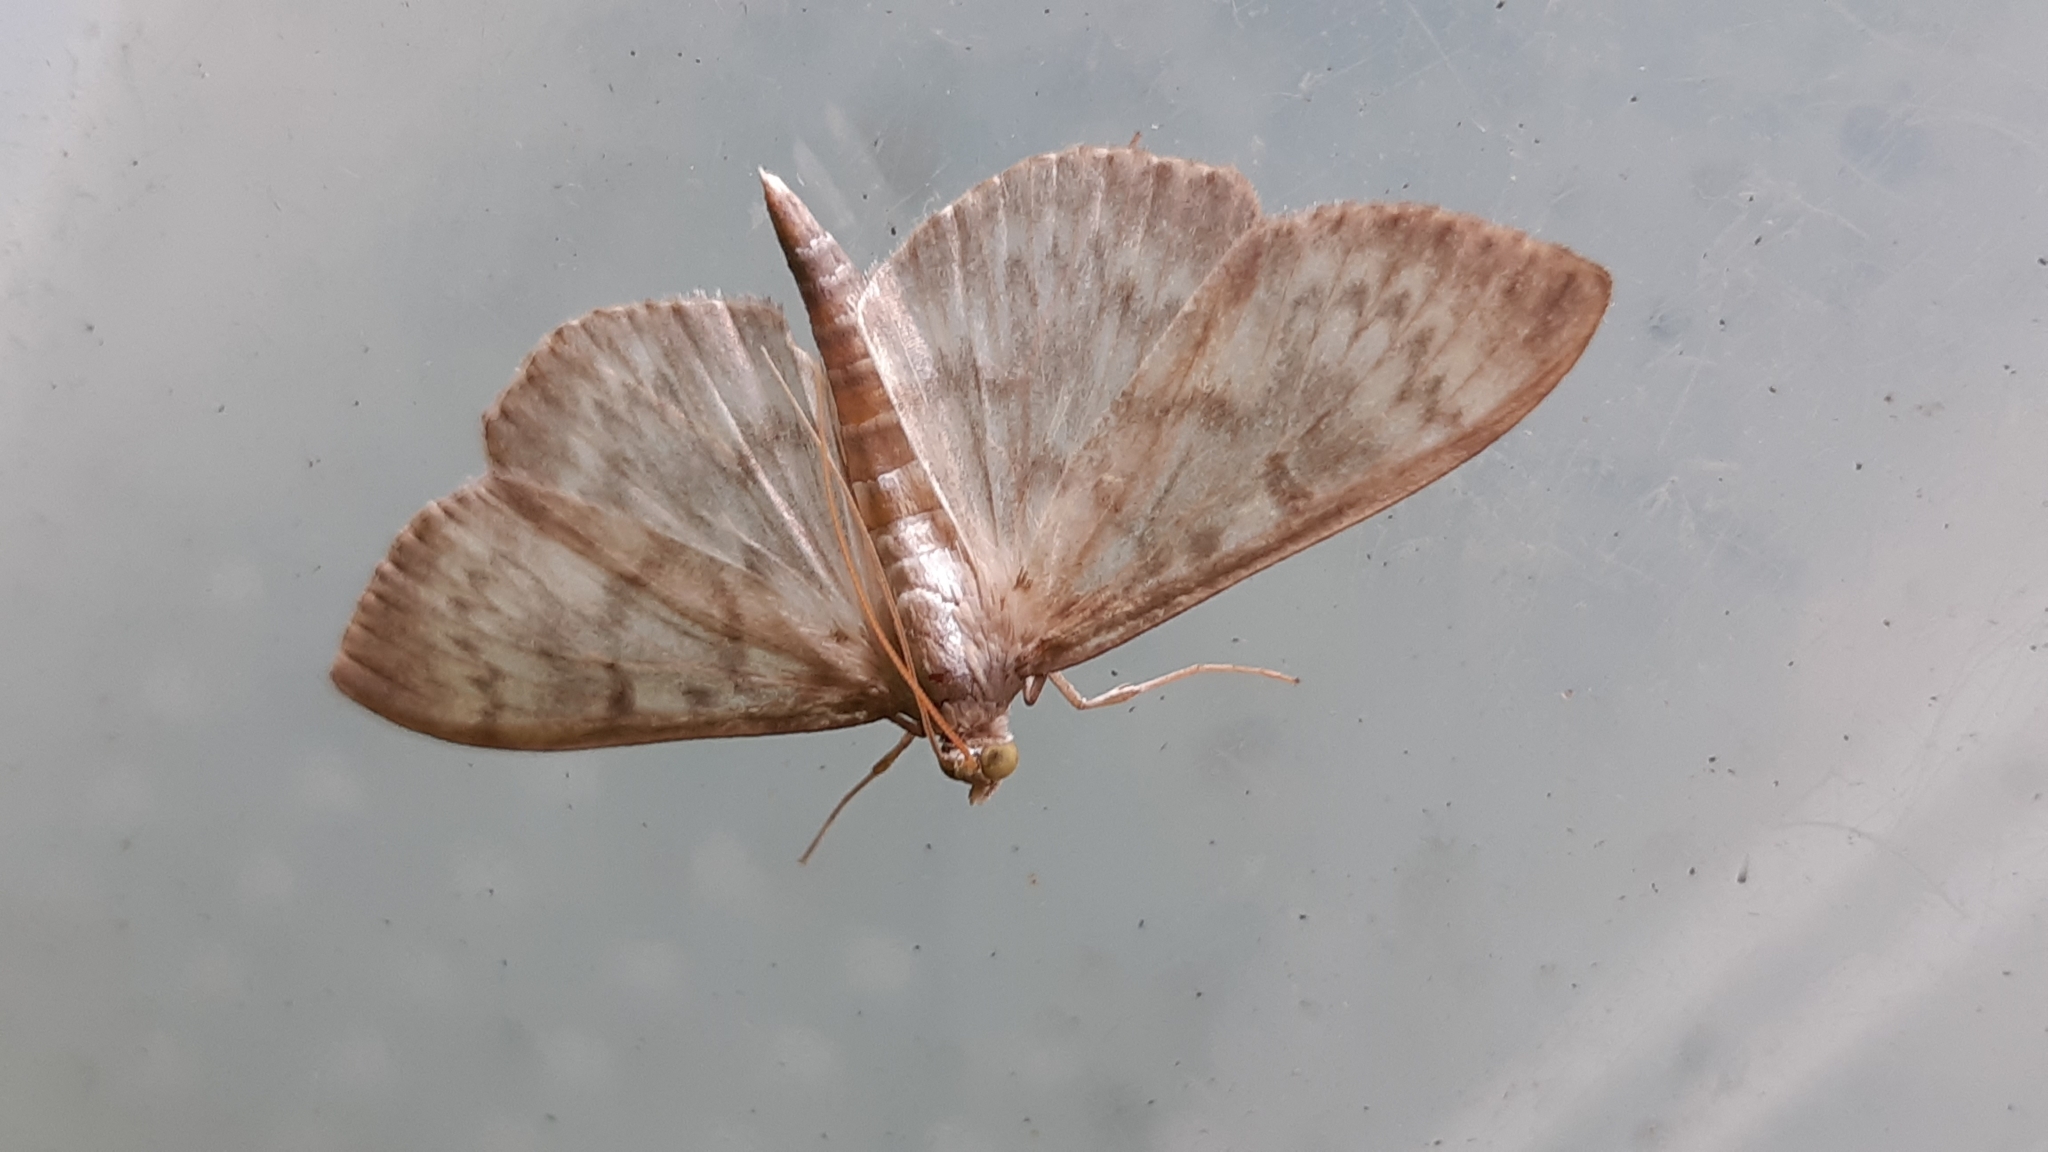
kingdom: Animalia
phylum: Arthropoda
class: Insecta
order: Lepidoptera
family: Crambidae
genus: Patania
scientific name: Patania ruralis
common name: Mother of pearl
